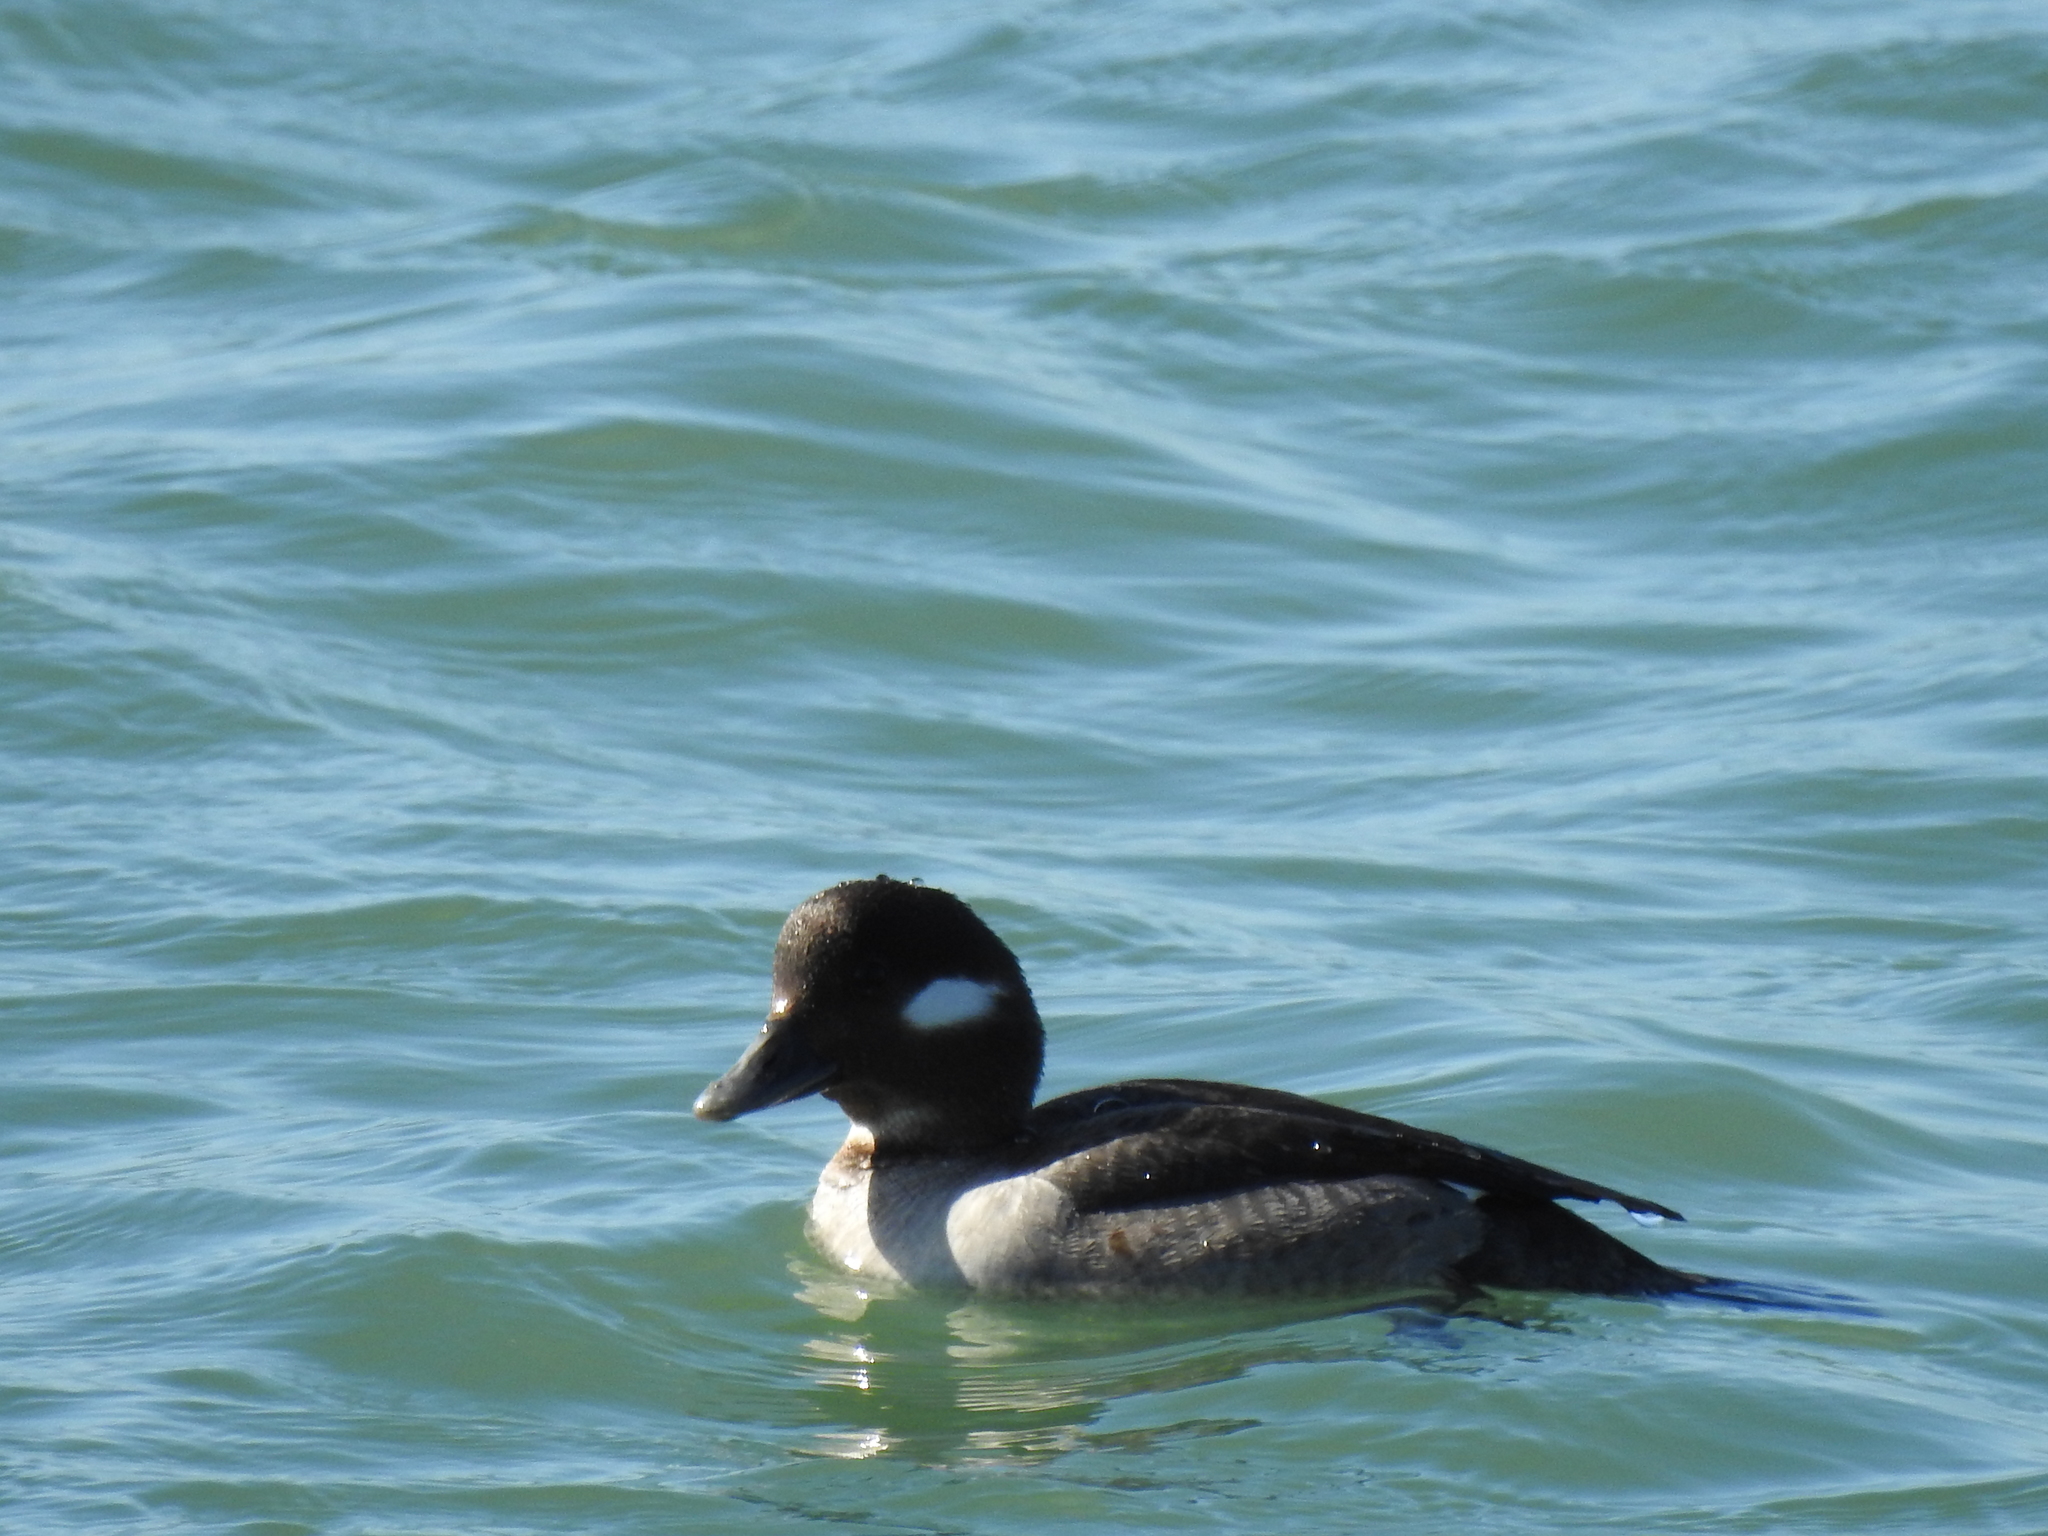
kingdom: Animalia
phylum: Chordata
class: Aves
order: Anseriformes
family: Anatidae
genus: Bucephala
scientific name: Bucephala albeola
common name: Bufflehead
